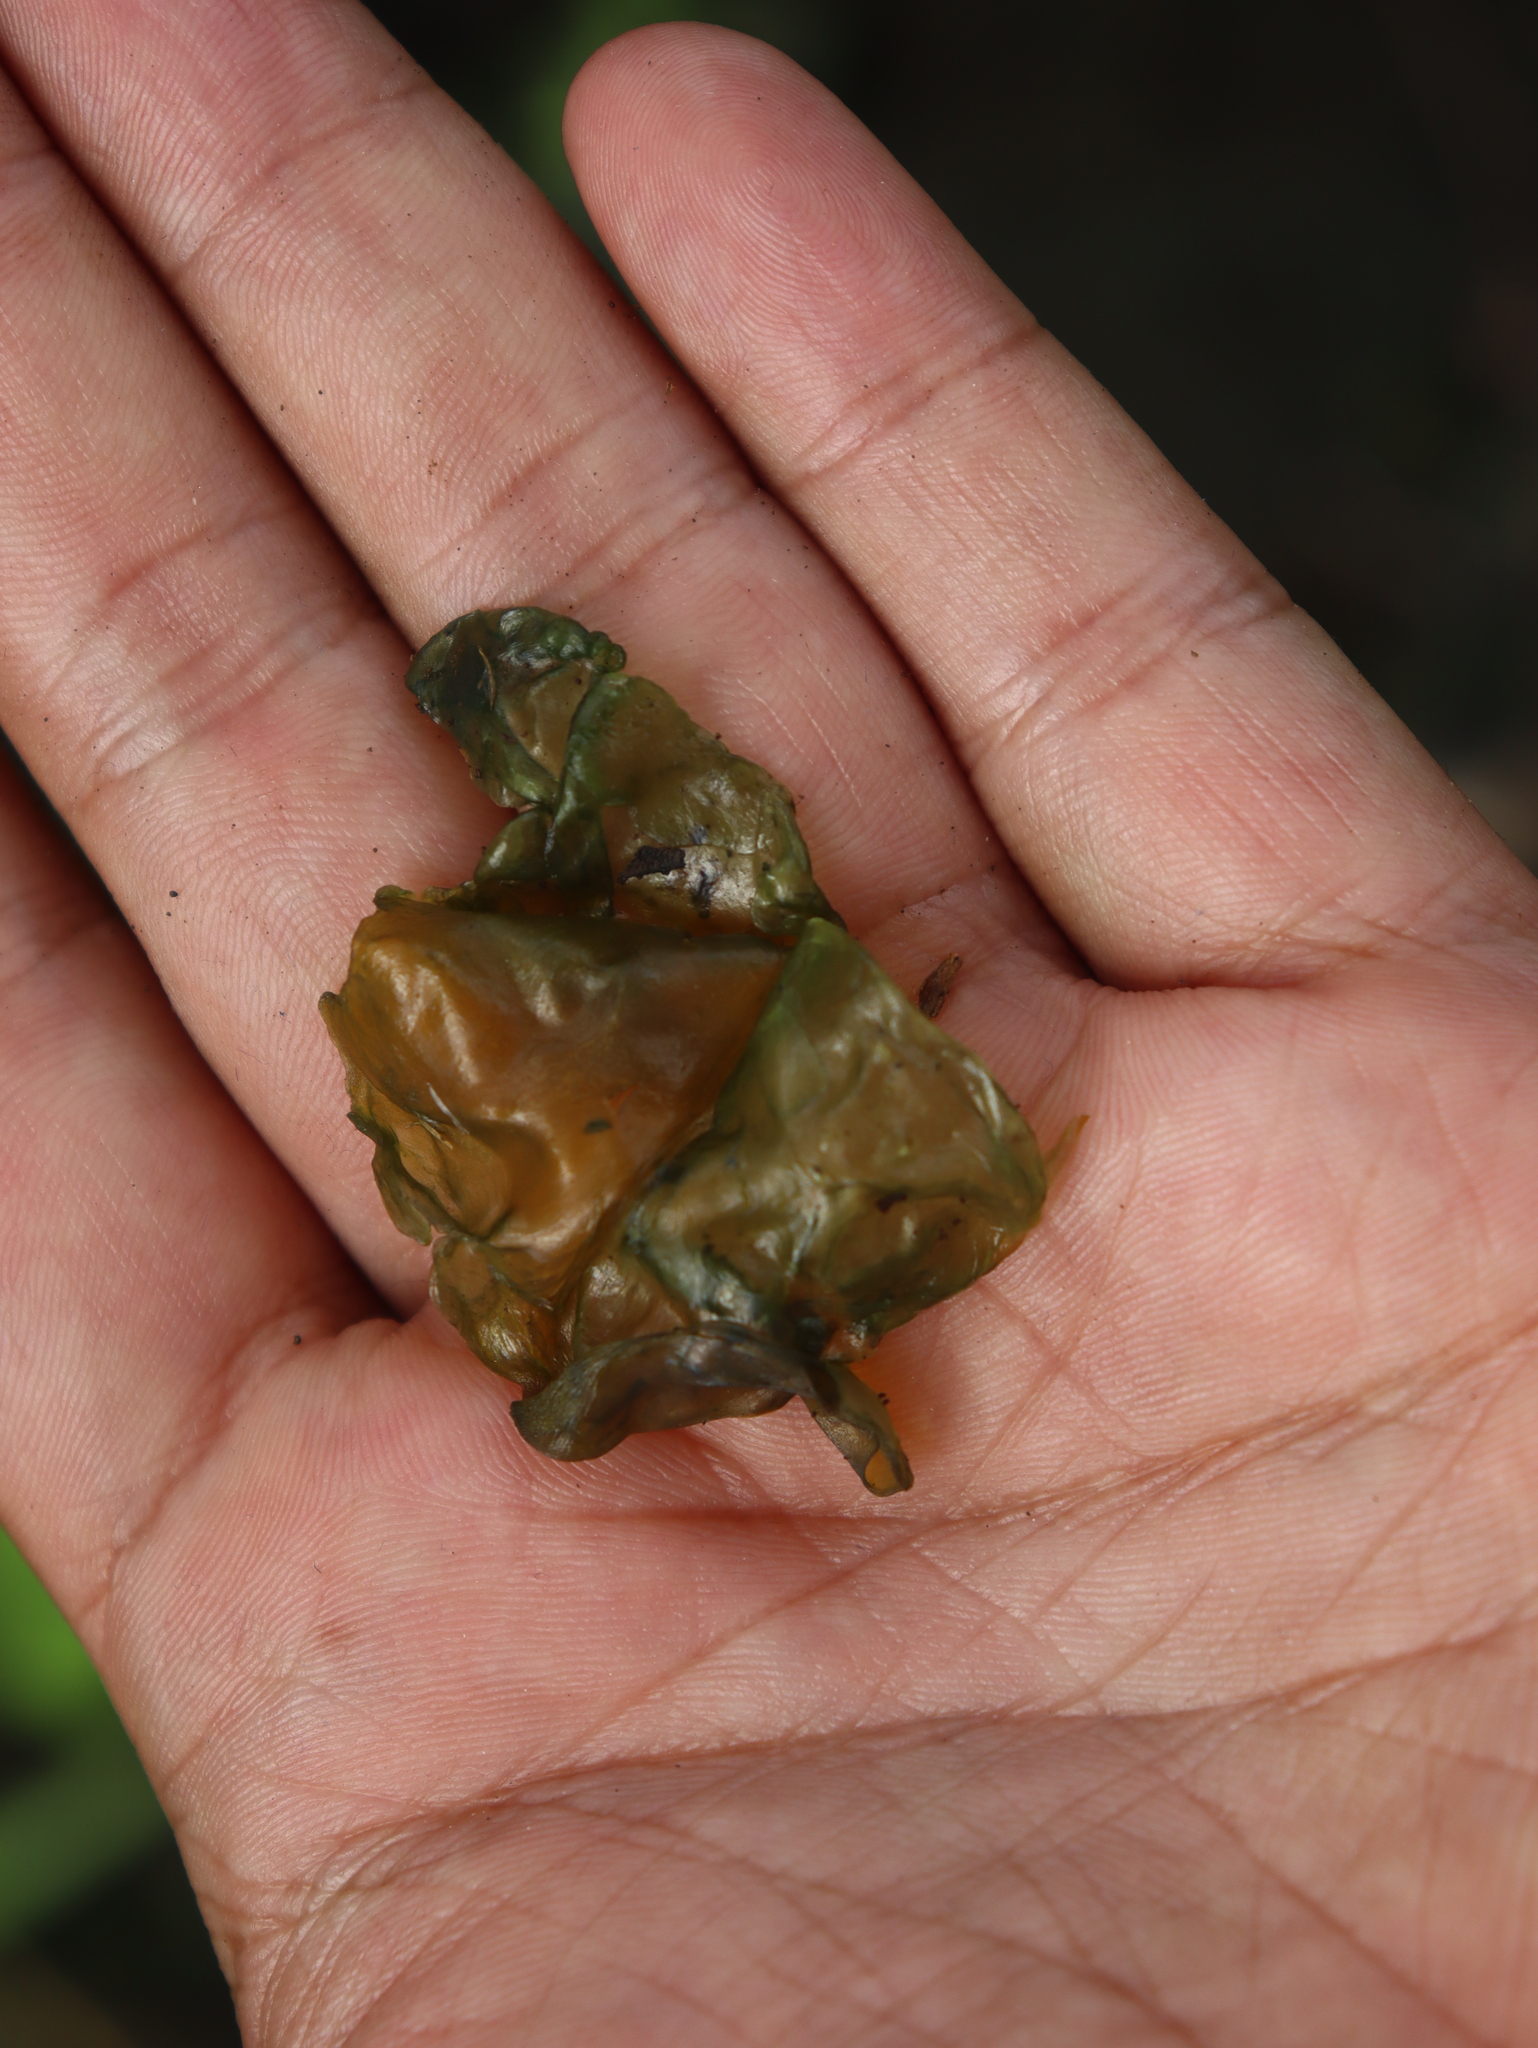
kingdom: Bacteria
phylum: Cyanobacteria
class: Cyanobacteriia
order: Cyanobacteriales
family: Nostocaceae
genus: Nostoc
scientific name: Nostoc commune
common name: Star jelly
